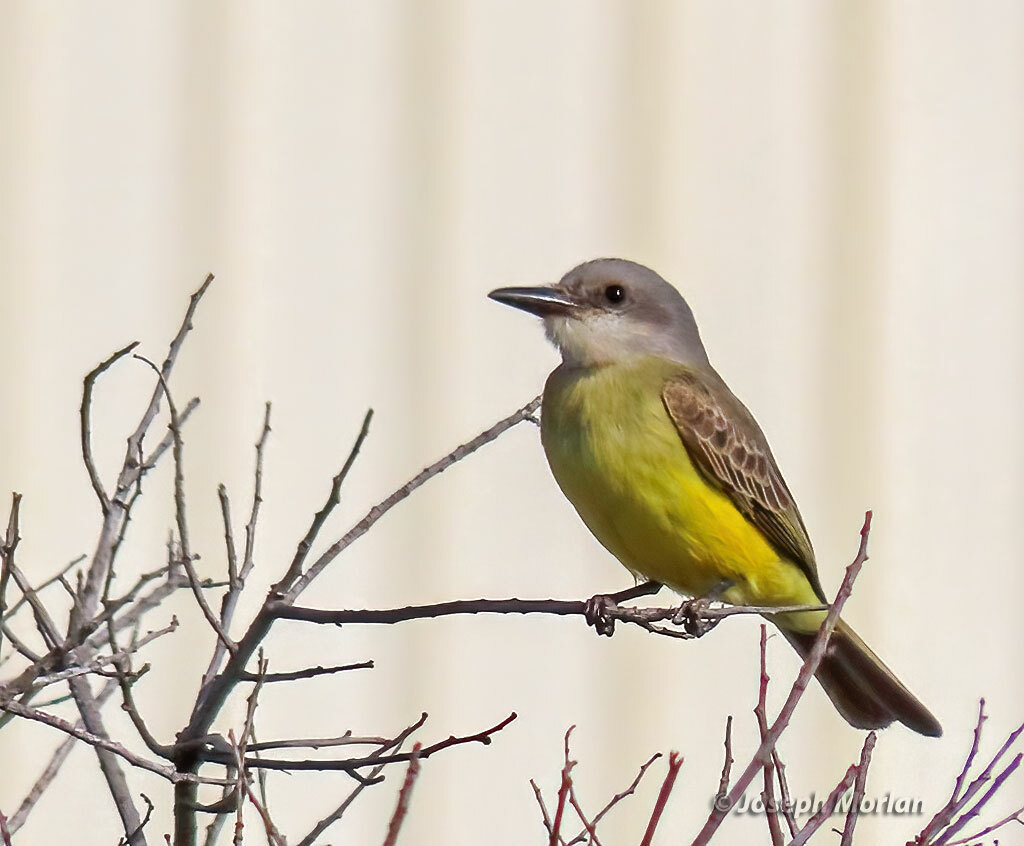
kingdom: Animalia
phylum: Chordata
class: Aves
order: Passeriformes
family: Tyrannidae
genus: Tyrannus
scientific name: Tyrannus melancholicus
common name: Tropical kingbird
